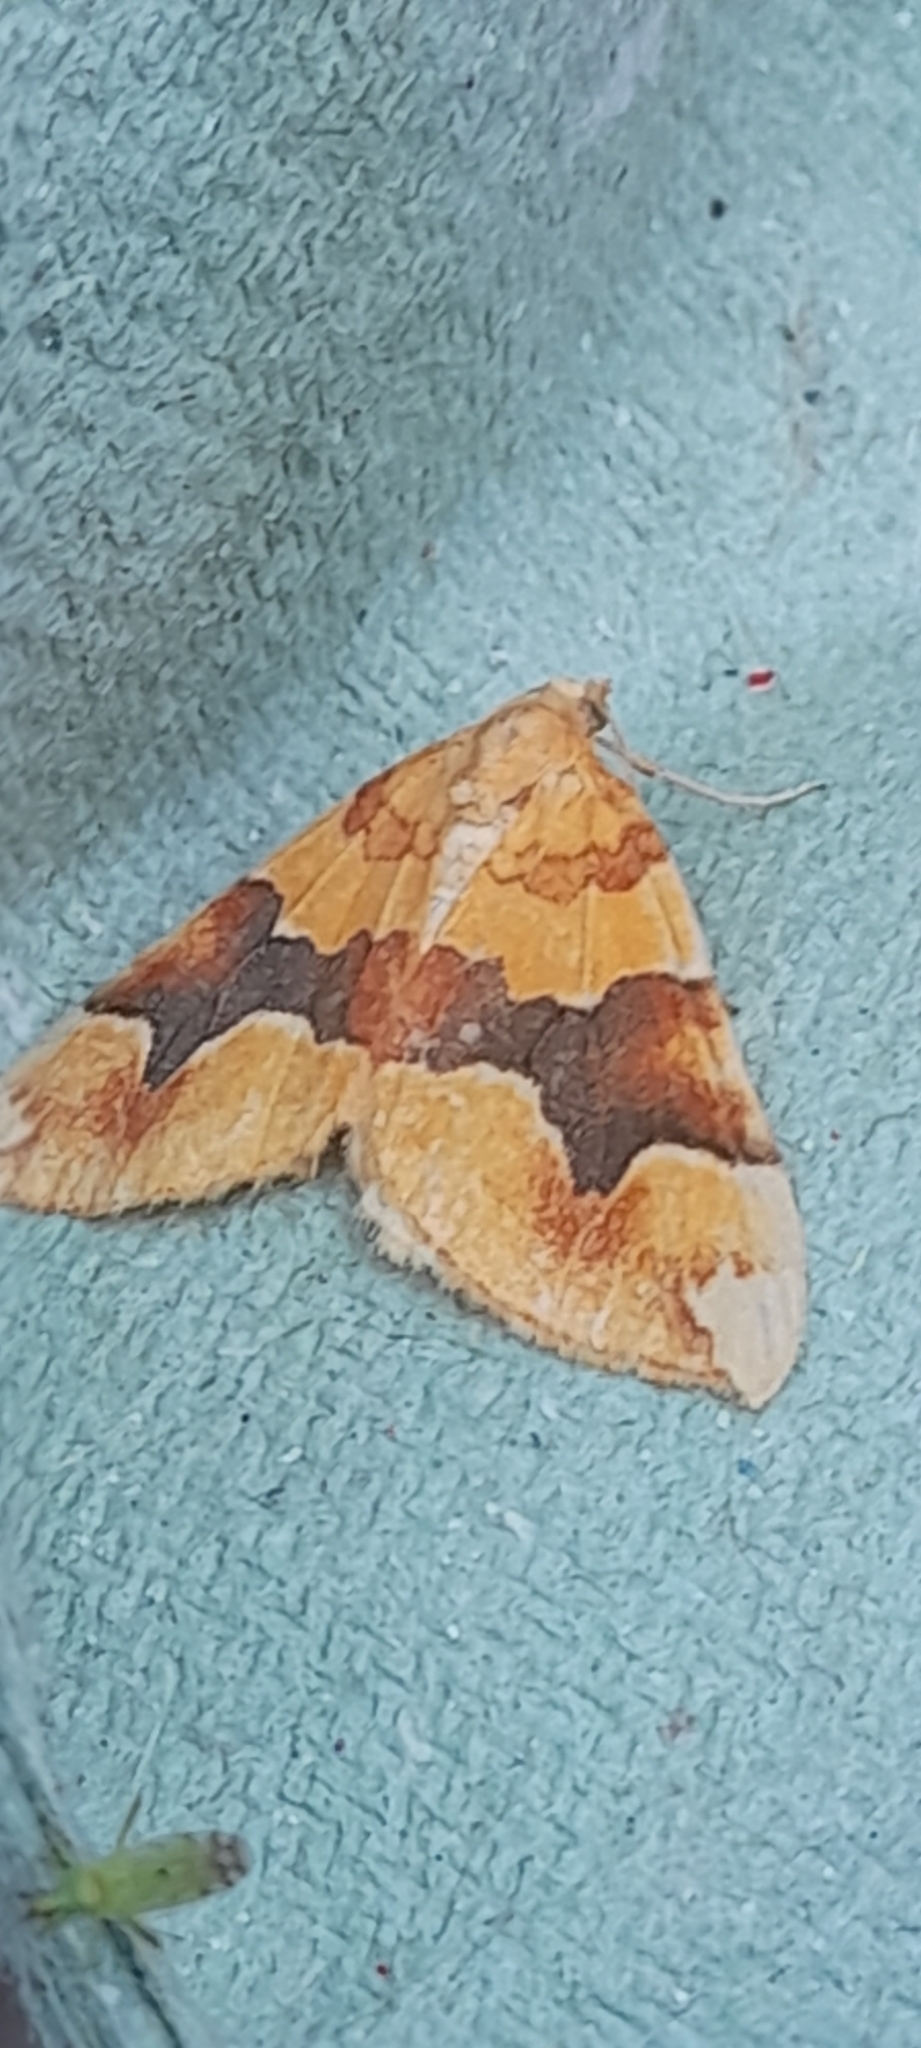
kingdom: Animalia
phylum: Arthropoda
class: Insecta
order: Lepidoptera
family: Geometridae
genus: Cidaria
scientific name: Cidaria fulvata
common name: Barred yellow
